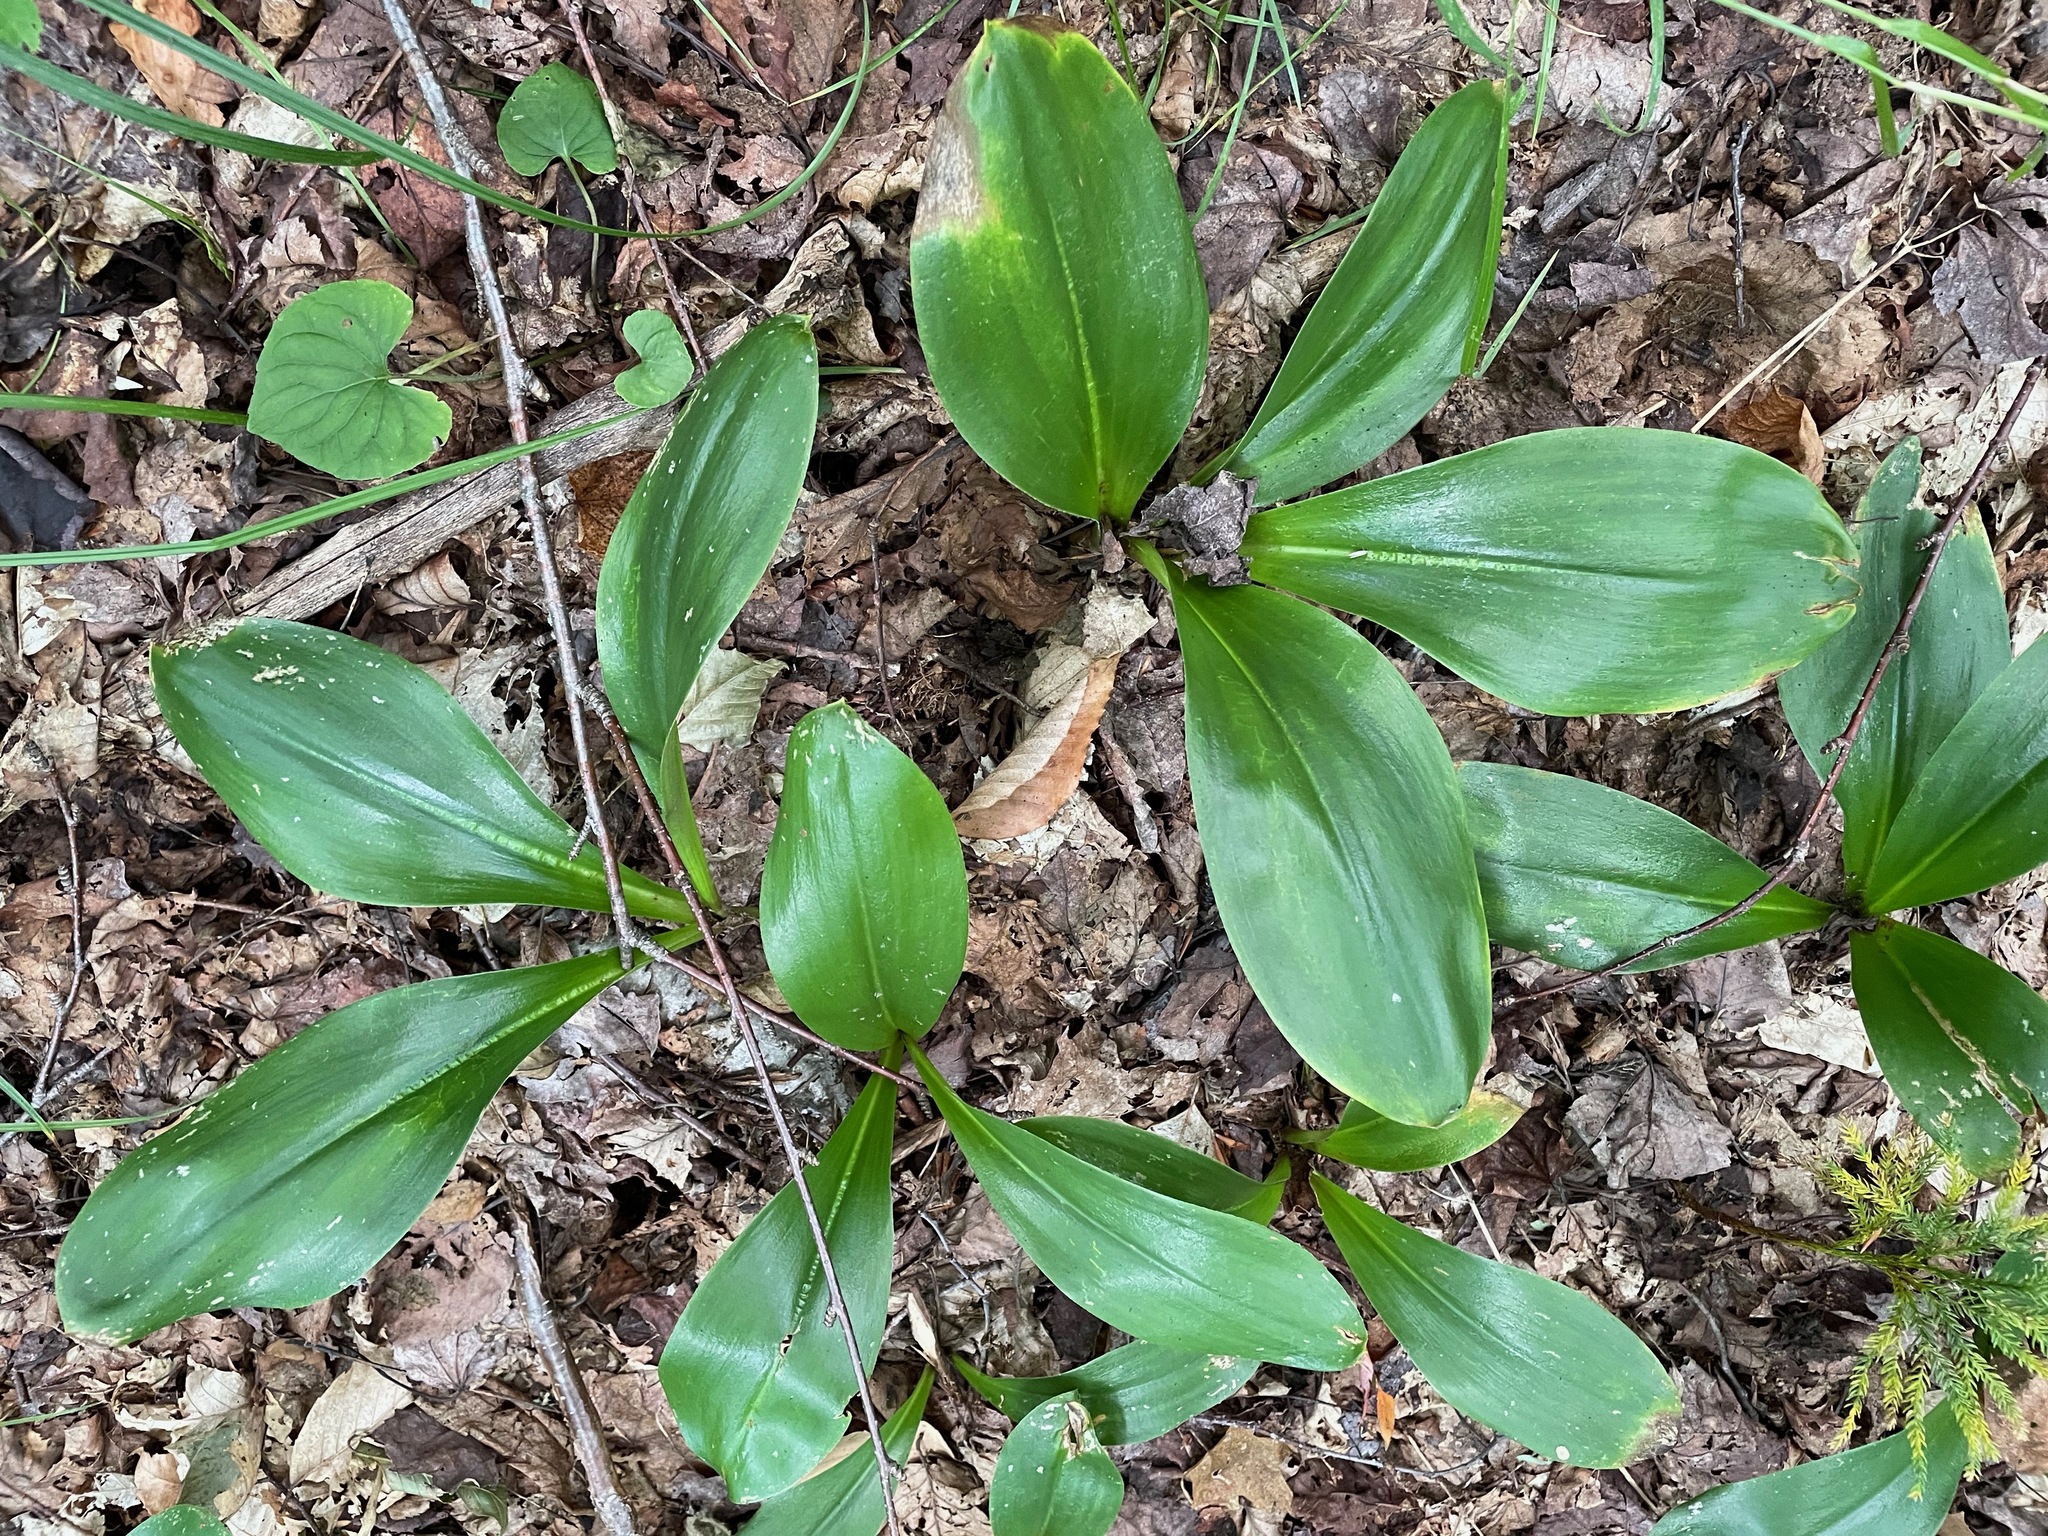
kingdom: Plantae
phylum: Tracheophyta
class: Liliopsida
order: Liliales
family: Liliaceae
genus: Clintonia
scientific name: Clintonia borealis
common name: Yellow clintonia
